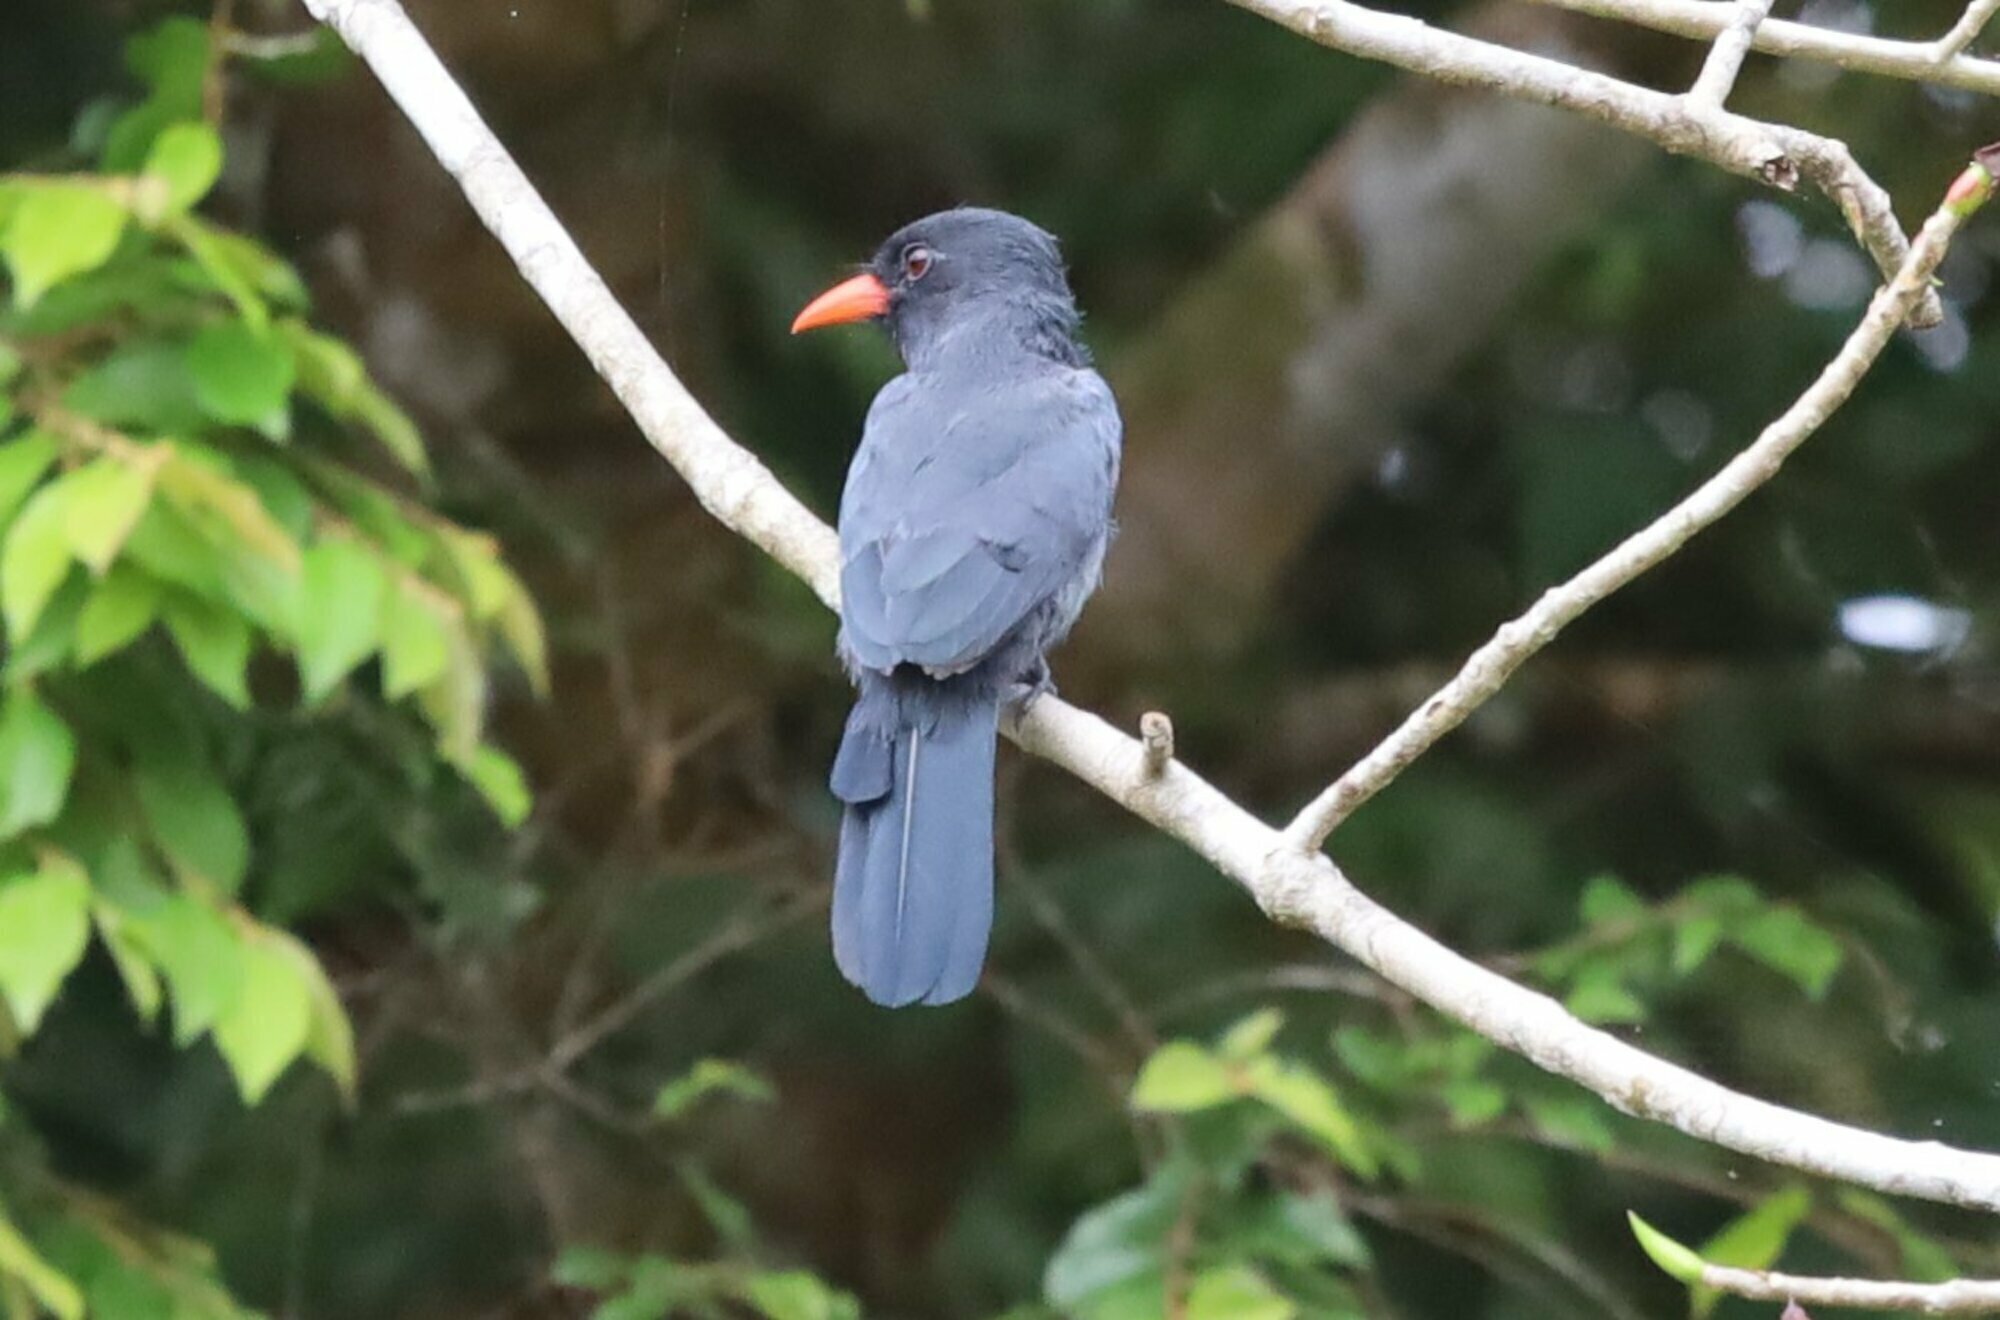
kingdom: Animalia
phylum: Chordata
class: Aves
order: Piciformes
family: Bucconidae
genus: Monasa
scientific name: Monasa nigrifrons
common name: Black-fronted nunbird
